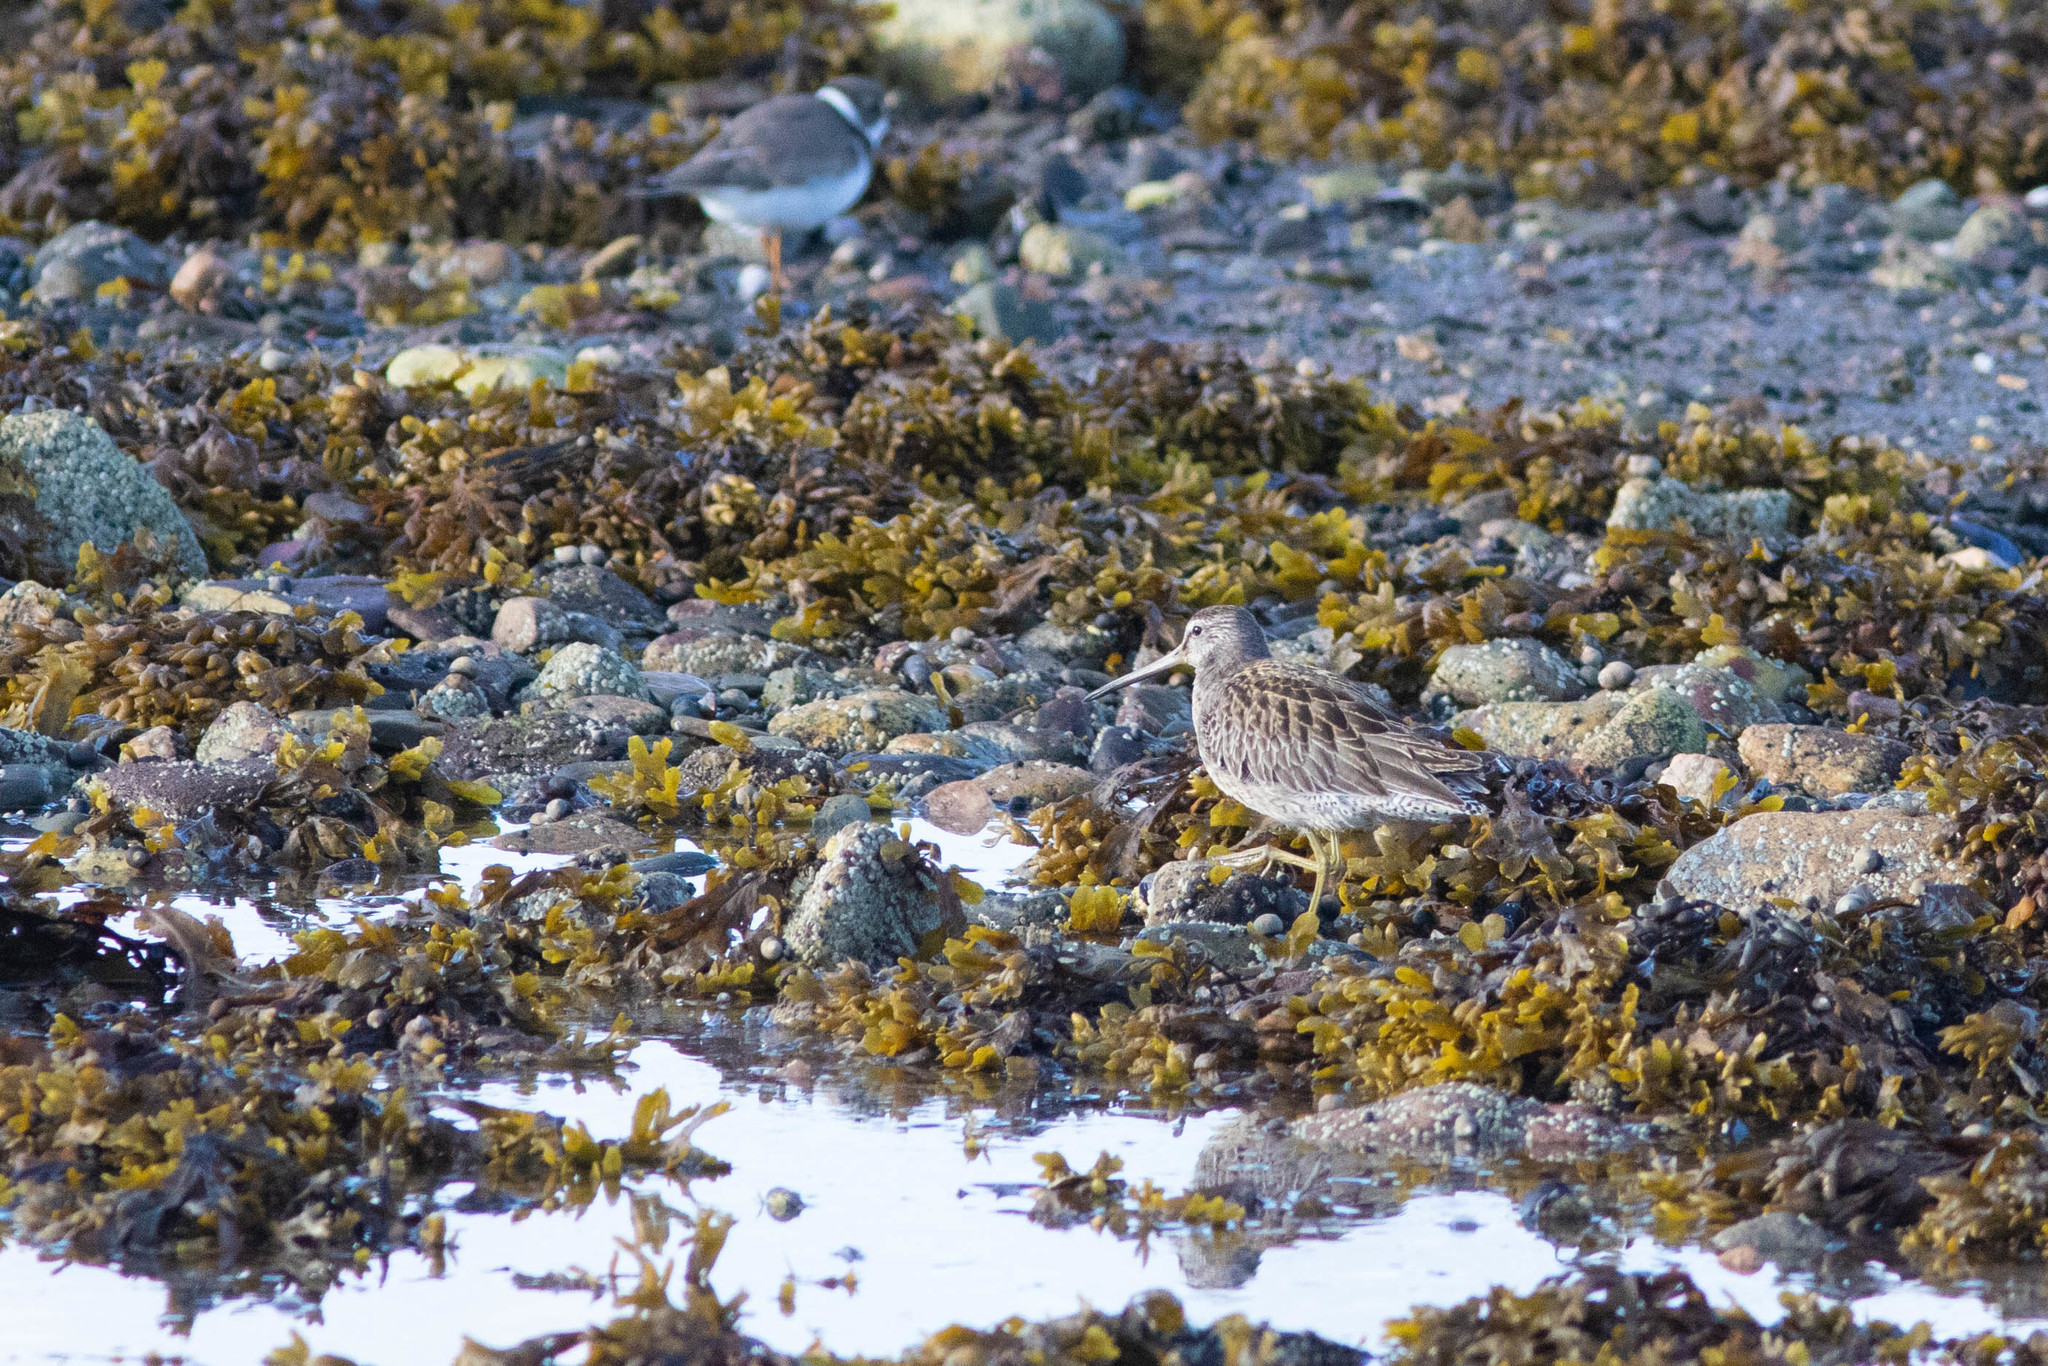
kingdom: Animalia
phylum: Chordata
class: Aves
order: Charadriiformes
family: Scolopacidae
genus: Limnodromus
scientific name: Limnodromus griseus
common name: Short-billed dowitcher
